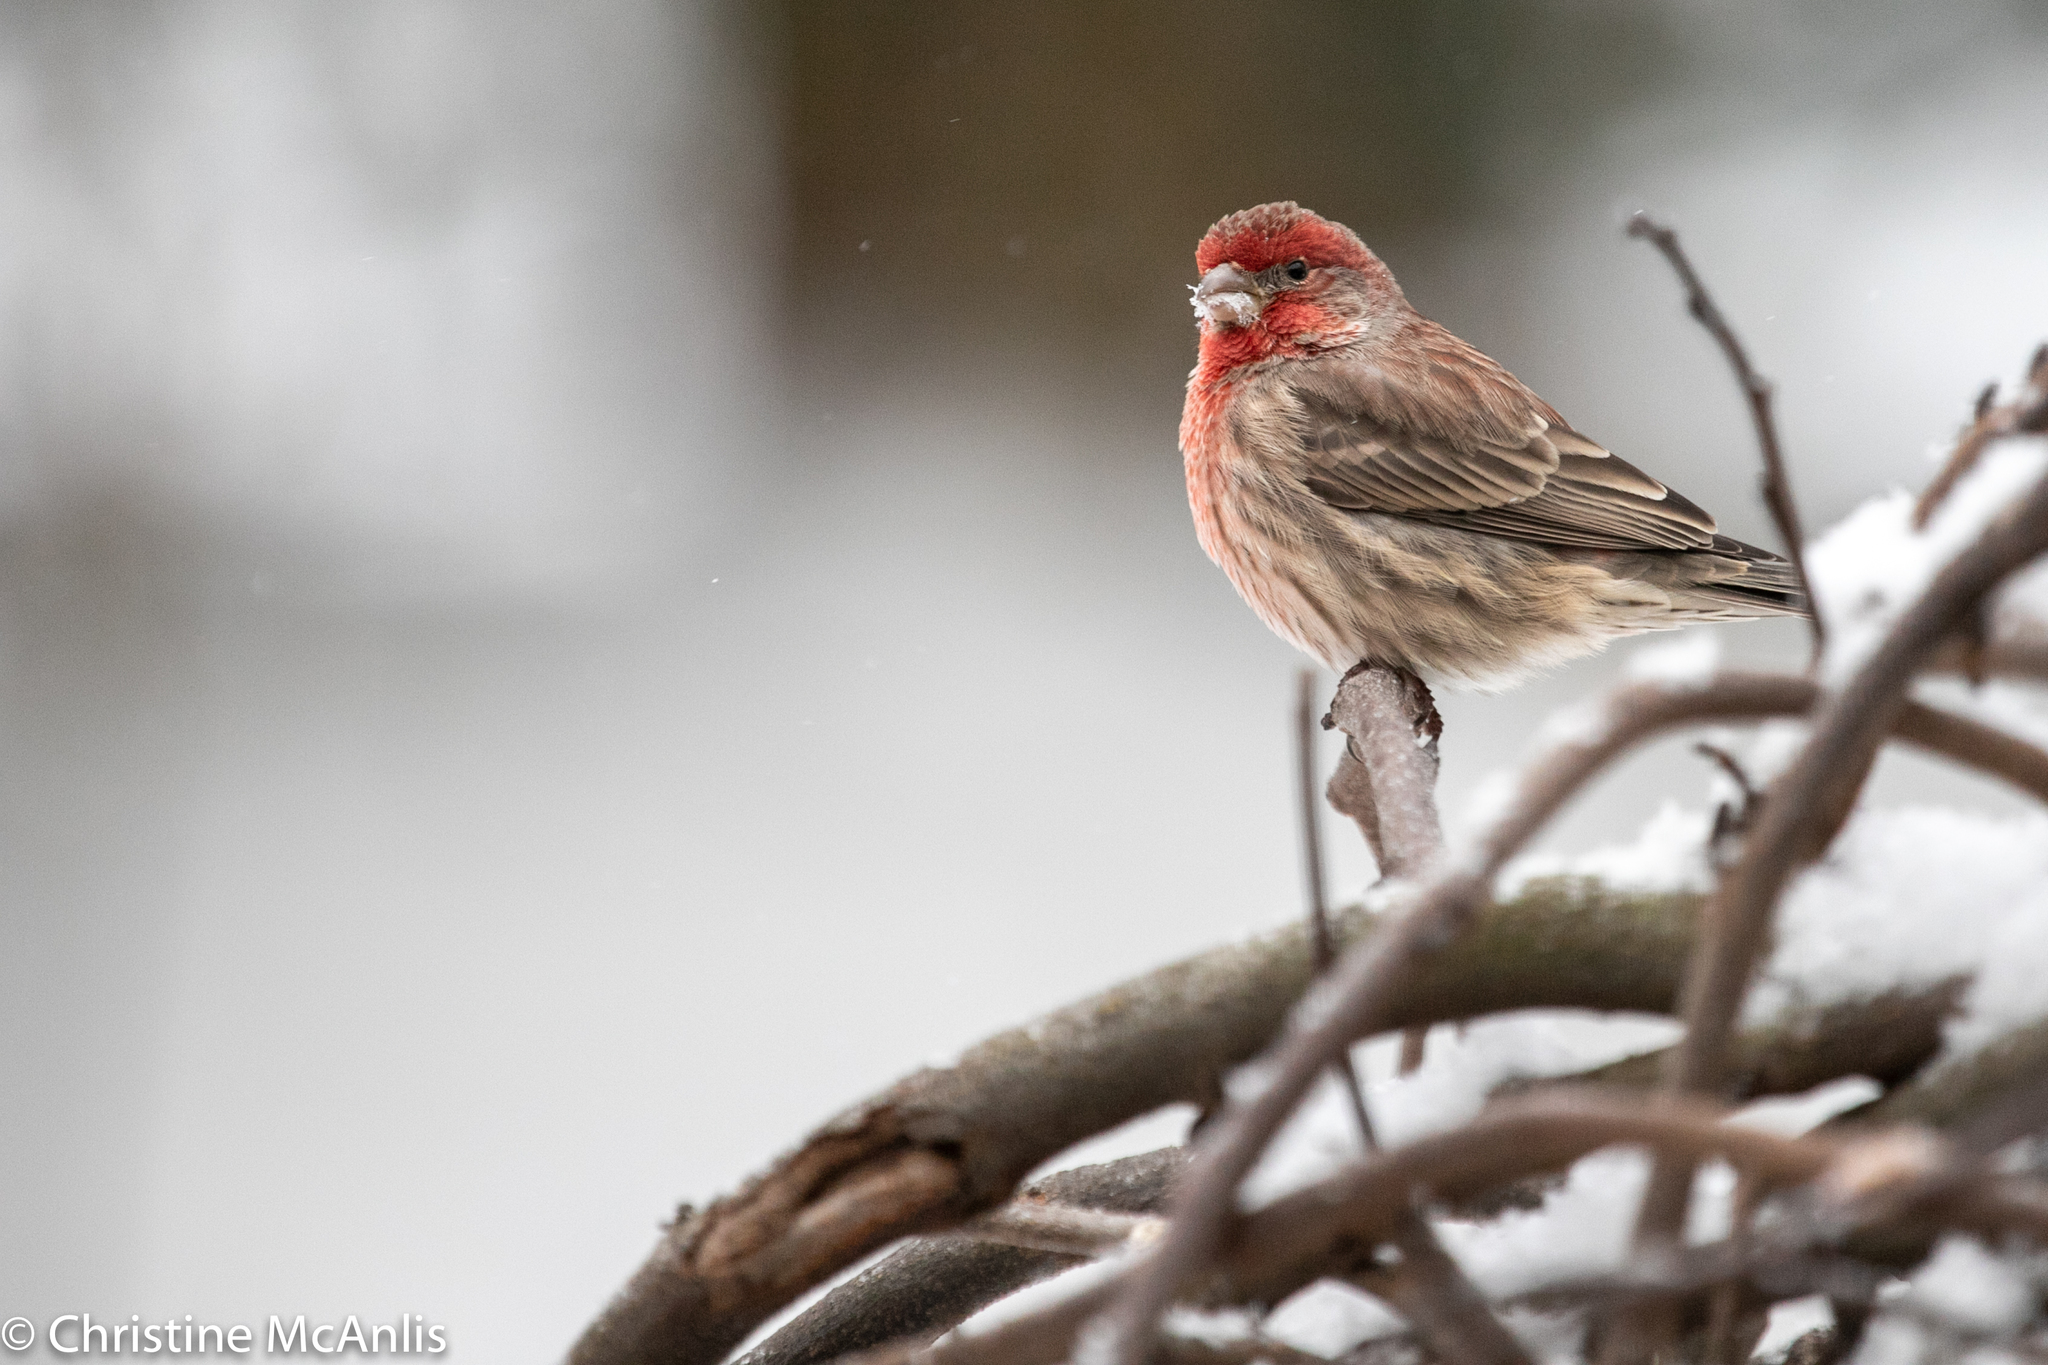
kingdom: Animalia
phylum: Chordata
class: Aves
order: Passeriformes
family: Fringillidae
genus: Haemorhous
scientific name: Haemorhous mexicanus
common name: House finch
